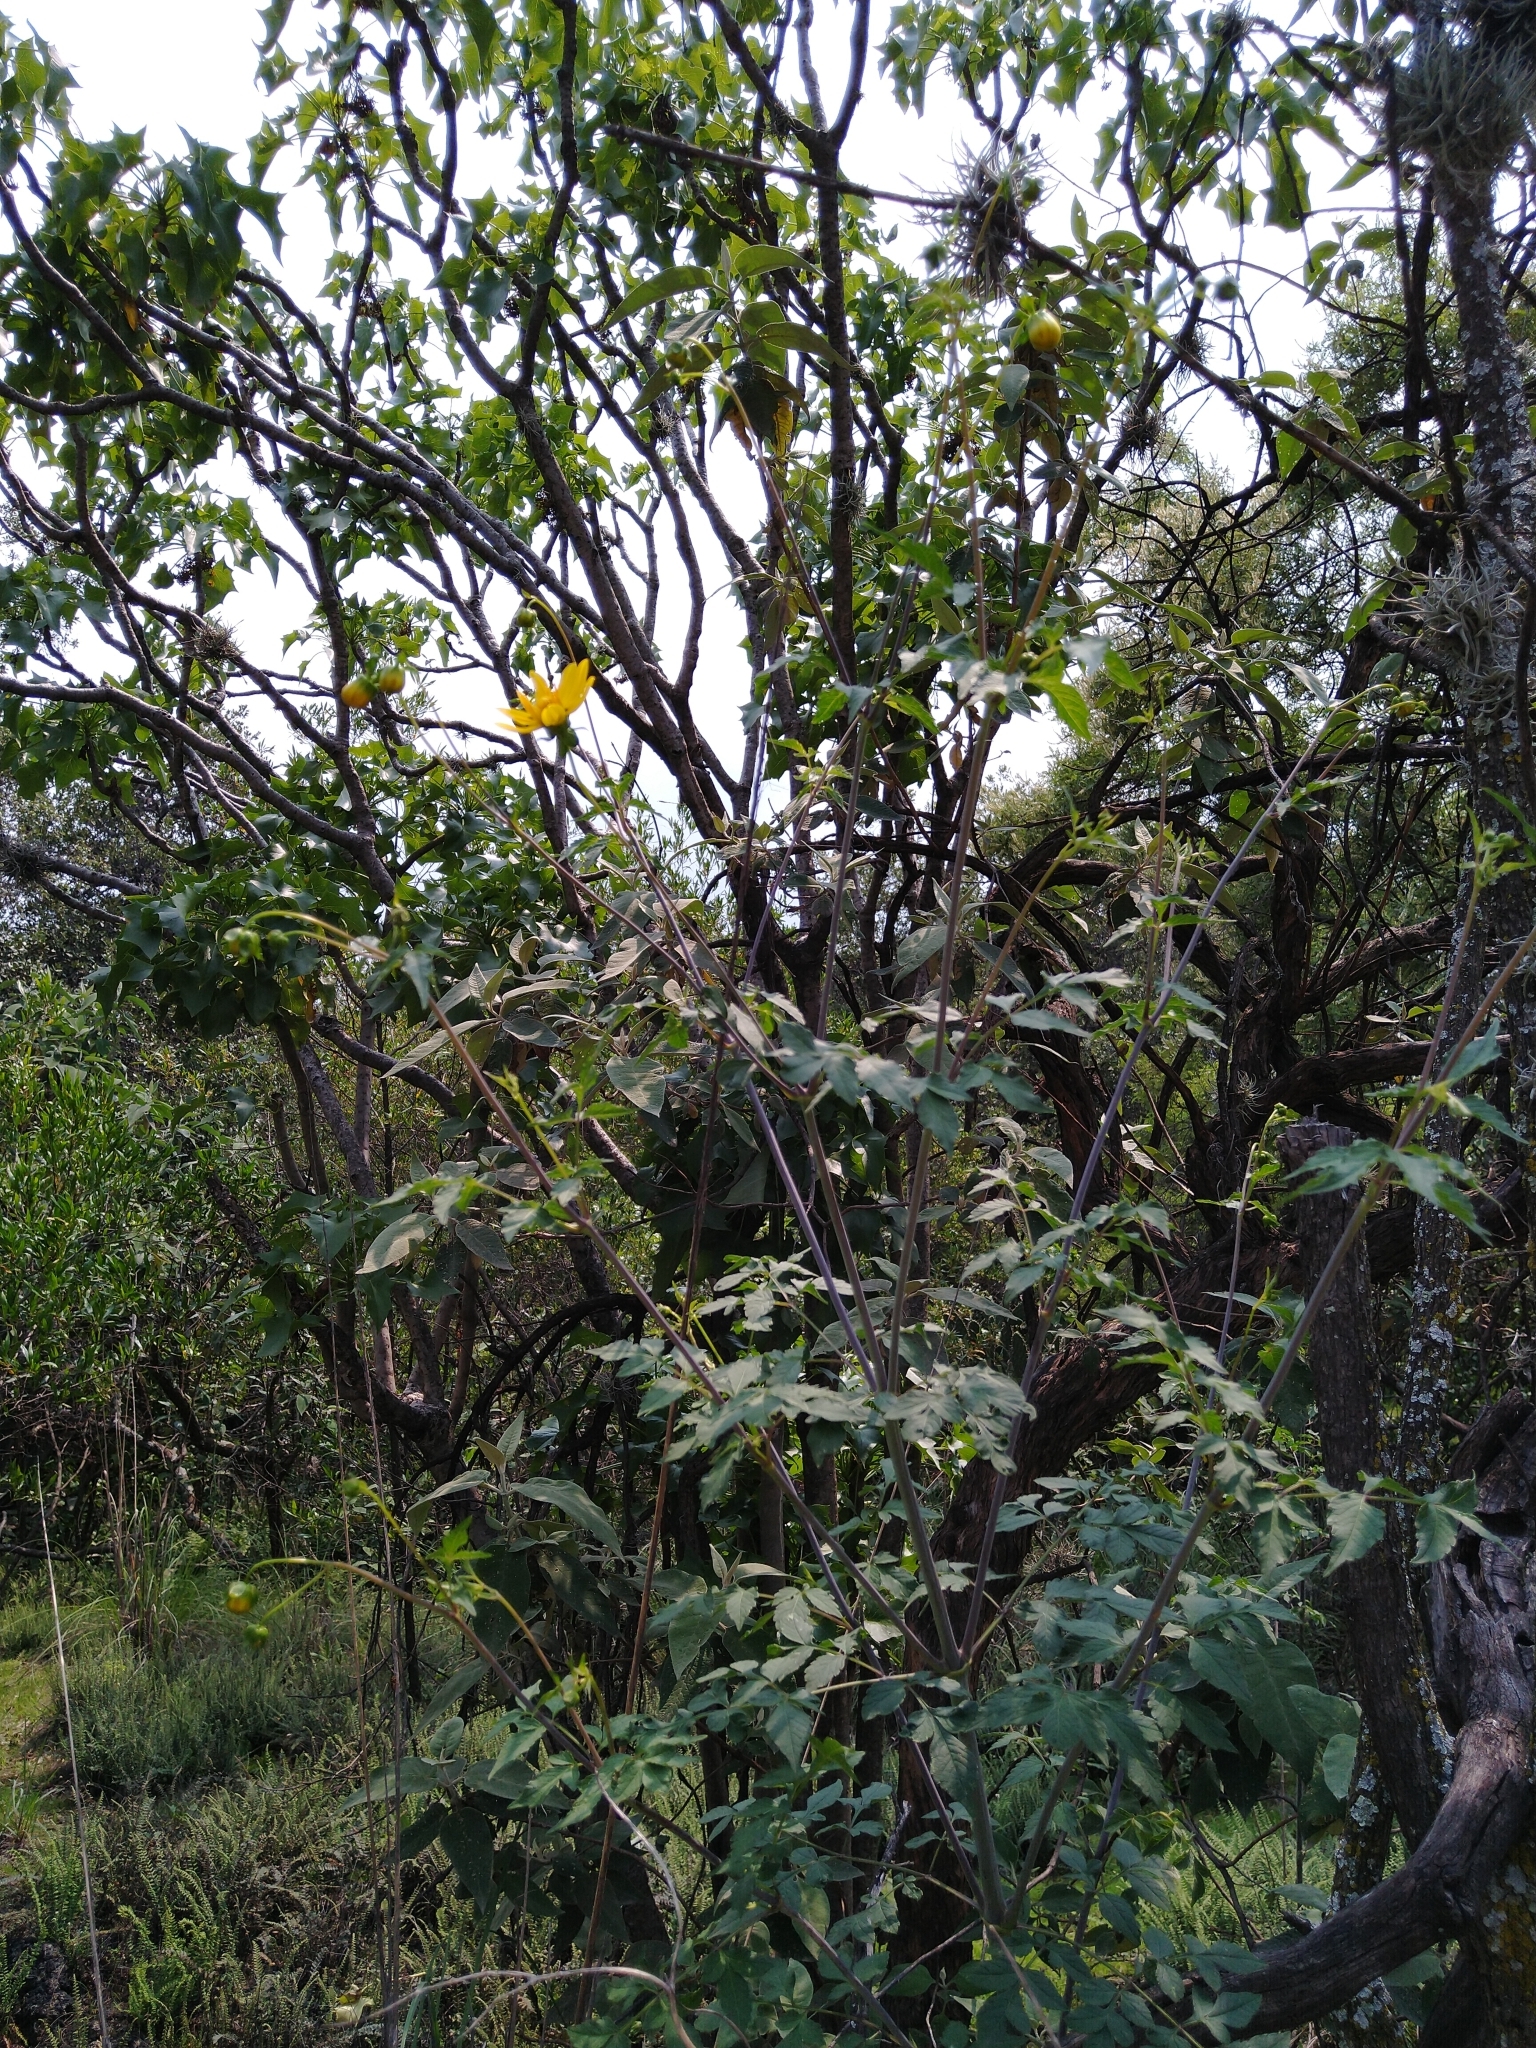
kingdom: Plantae
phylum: Tracheophyta
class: Magnoliopsida
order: Asterales
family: Asteraceae
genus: Dahlia
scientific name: Dahlia coccinea
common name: Red dahlia
